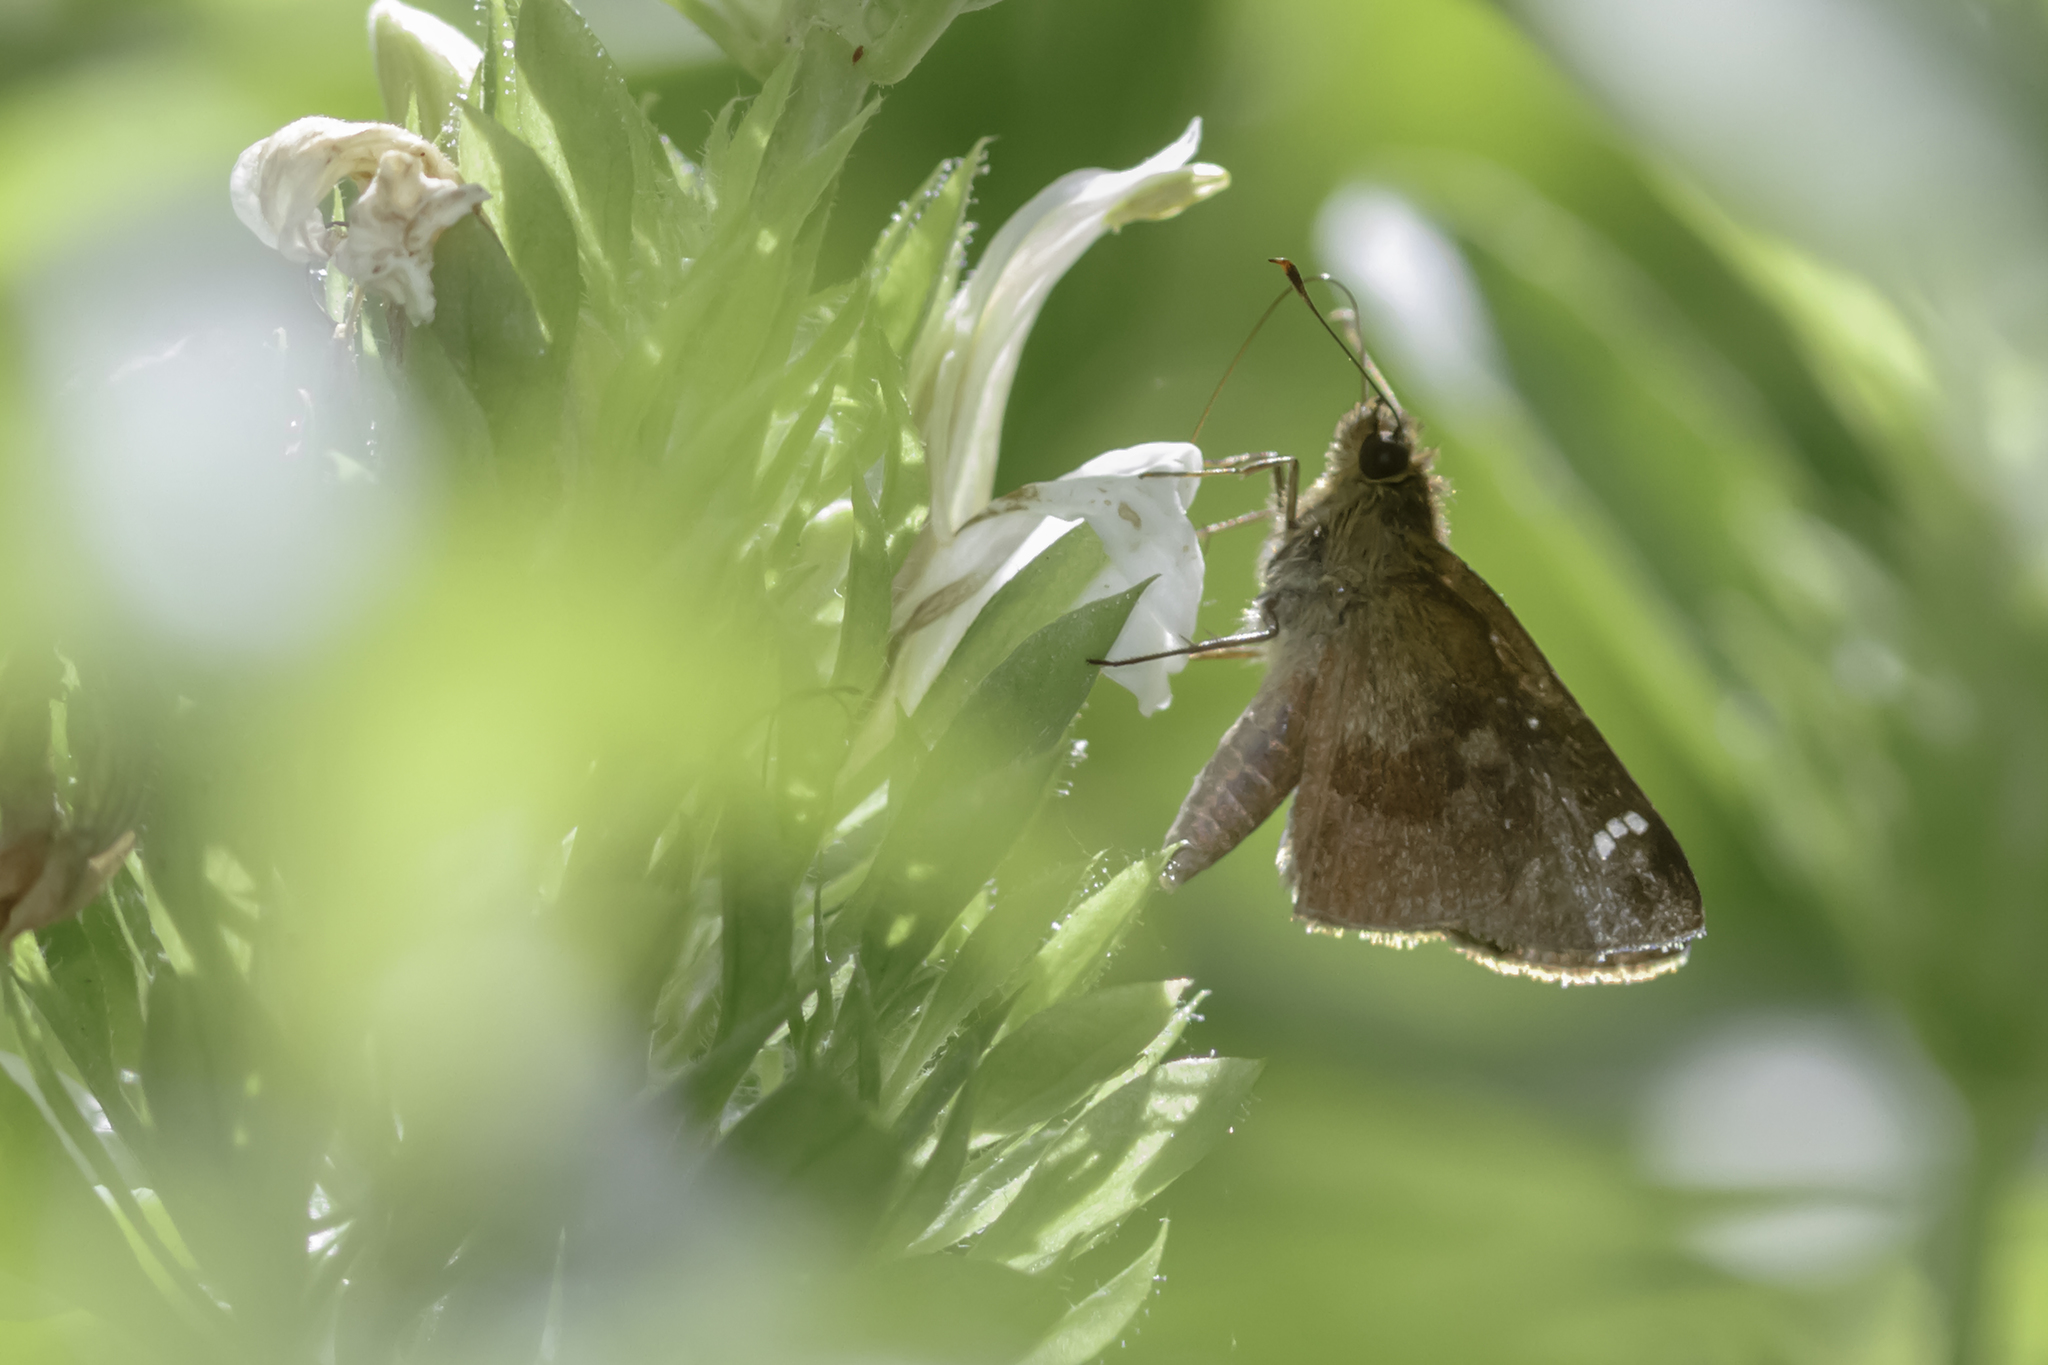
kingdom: Animalia
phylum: Arthropoda
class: Insecta
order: Lepidoptera
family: Hesperiidae
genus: Cymaenes
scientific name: Cymaenes
